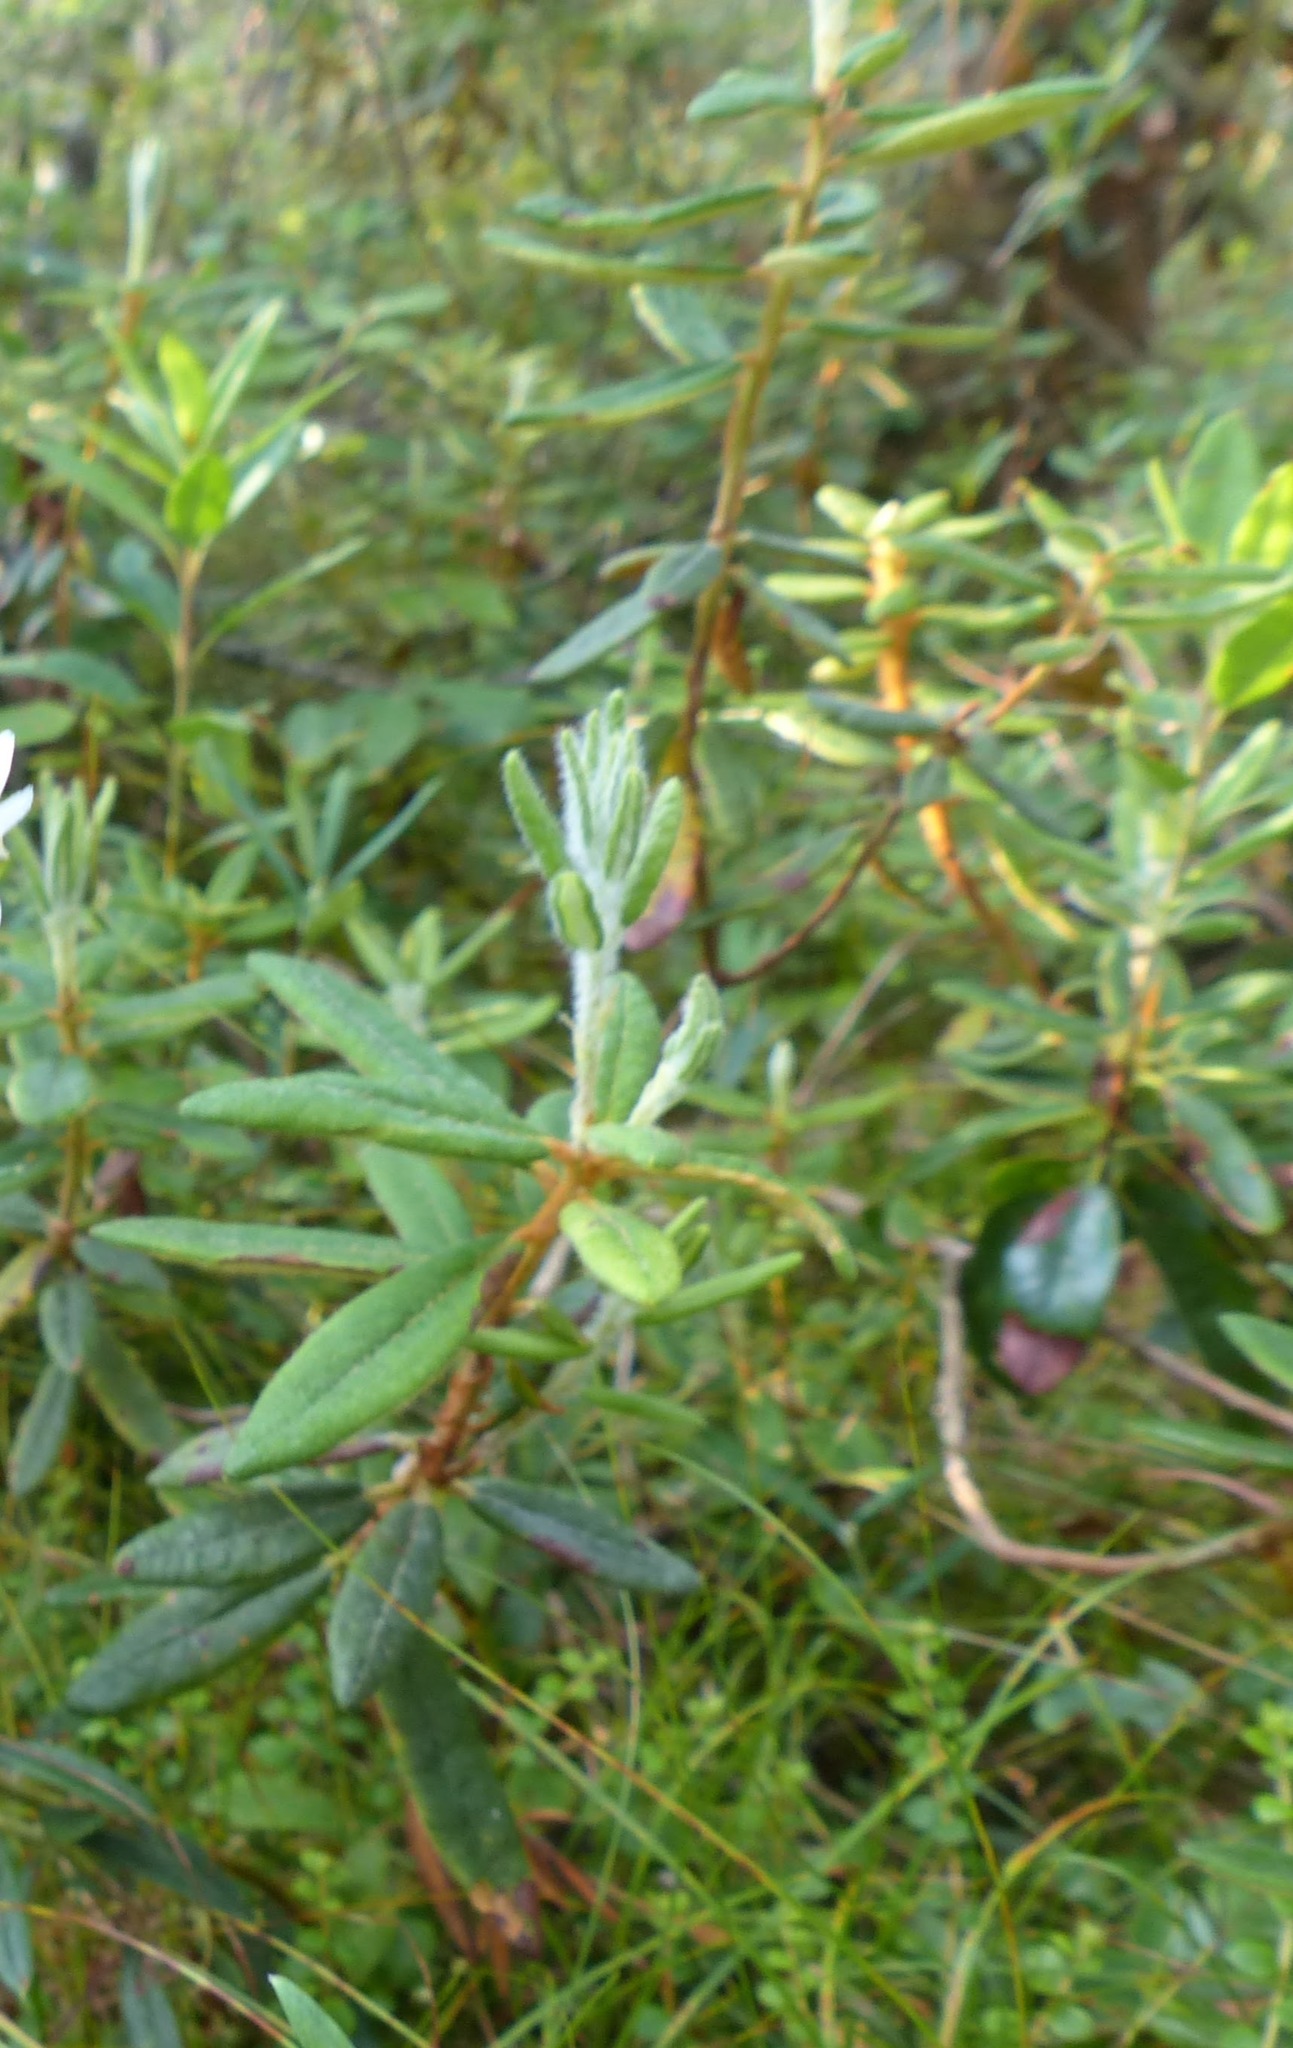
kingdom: Plantae
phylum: Tracheophyta
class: Magnoliopsida
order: Ericales
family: Ericaceae
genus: Rhododendron
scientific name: Rhododendron groenlandicum
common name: Bog labrador tea
